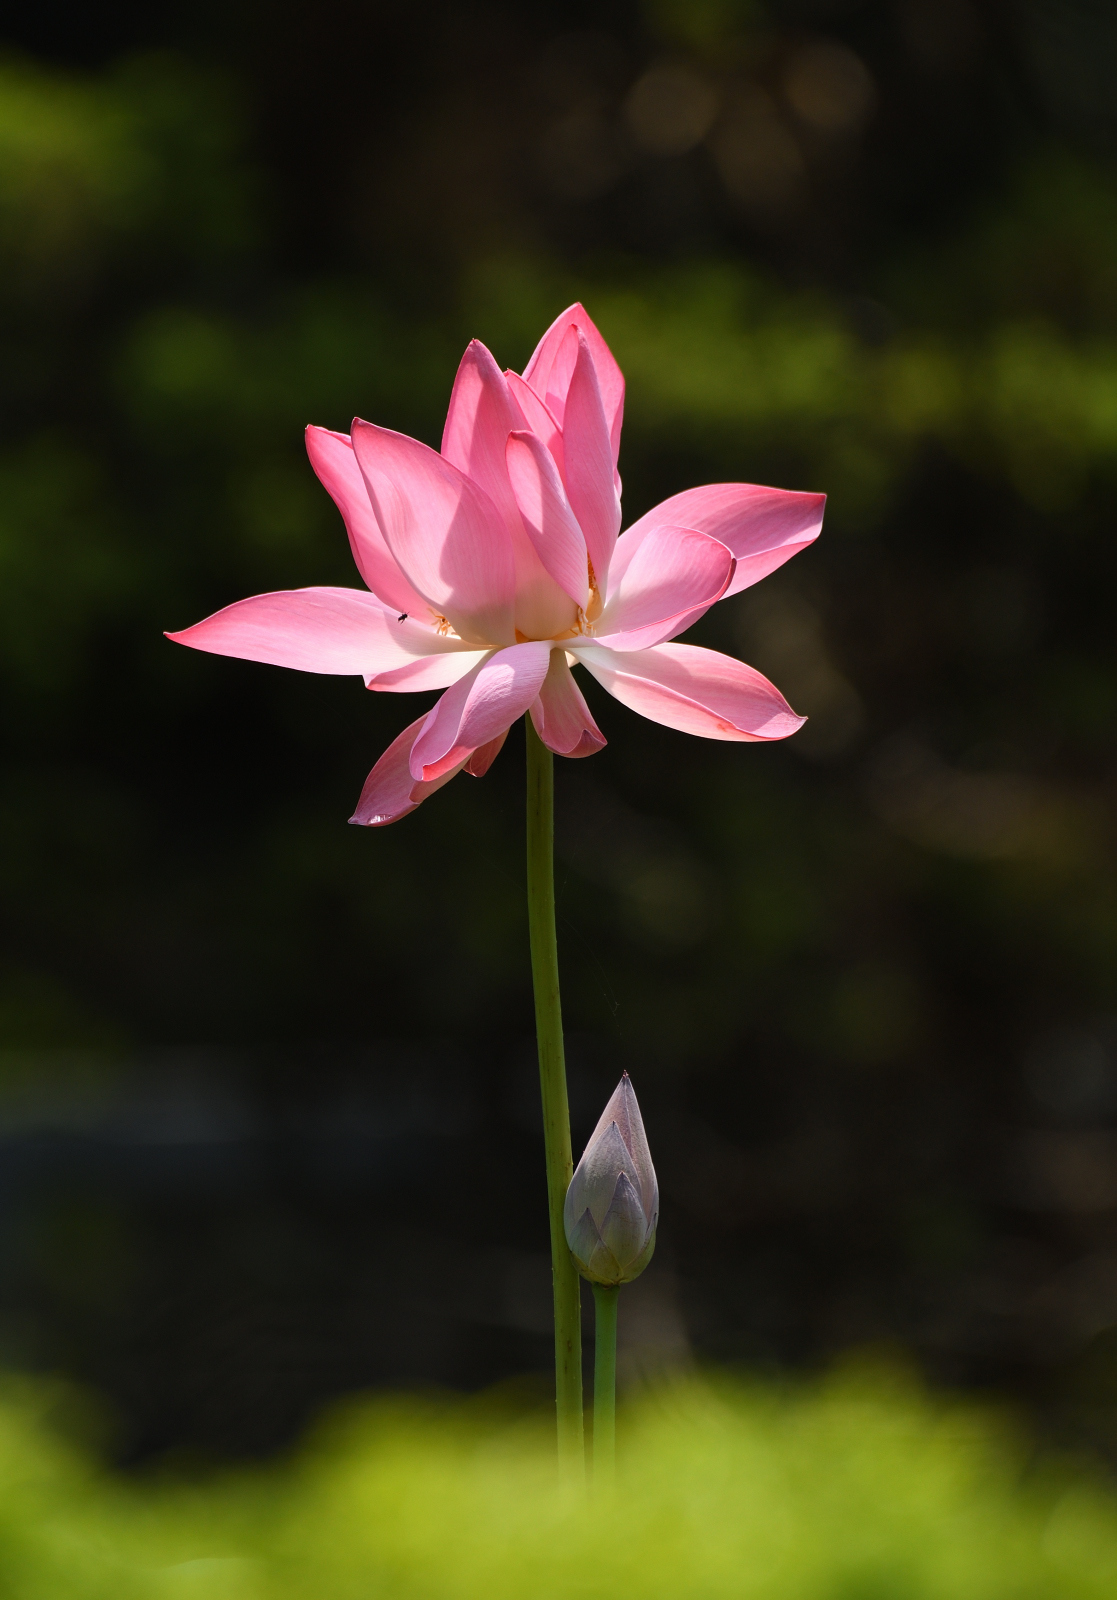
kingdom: Plantae
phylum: Tracheophyta
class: Magnoliopsida
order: Proteales
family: Nelumbonaceae
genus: Nelumbo
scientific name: Nelumbo nucifera
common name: Sacred lotus
